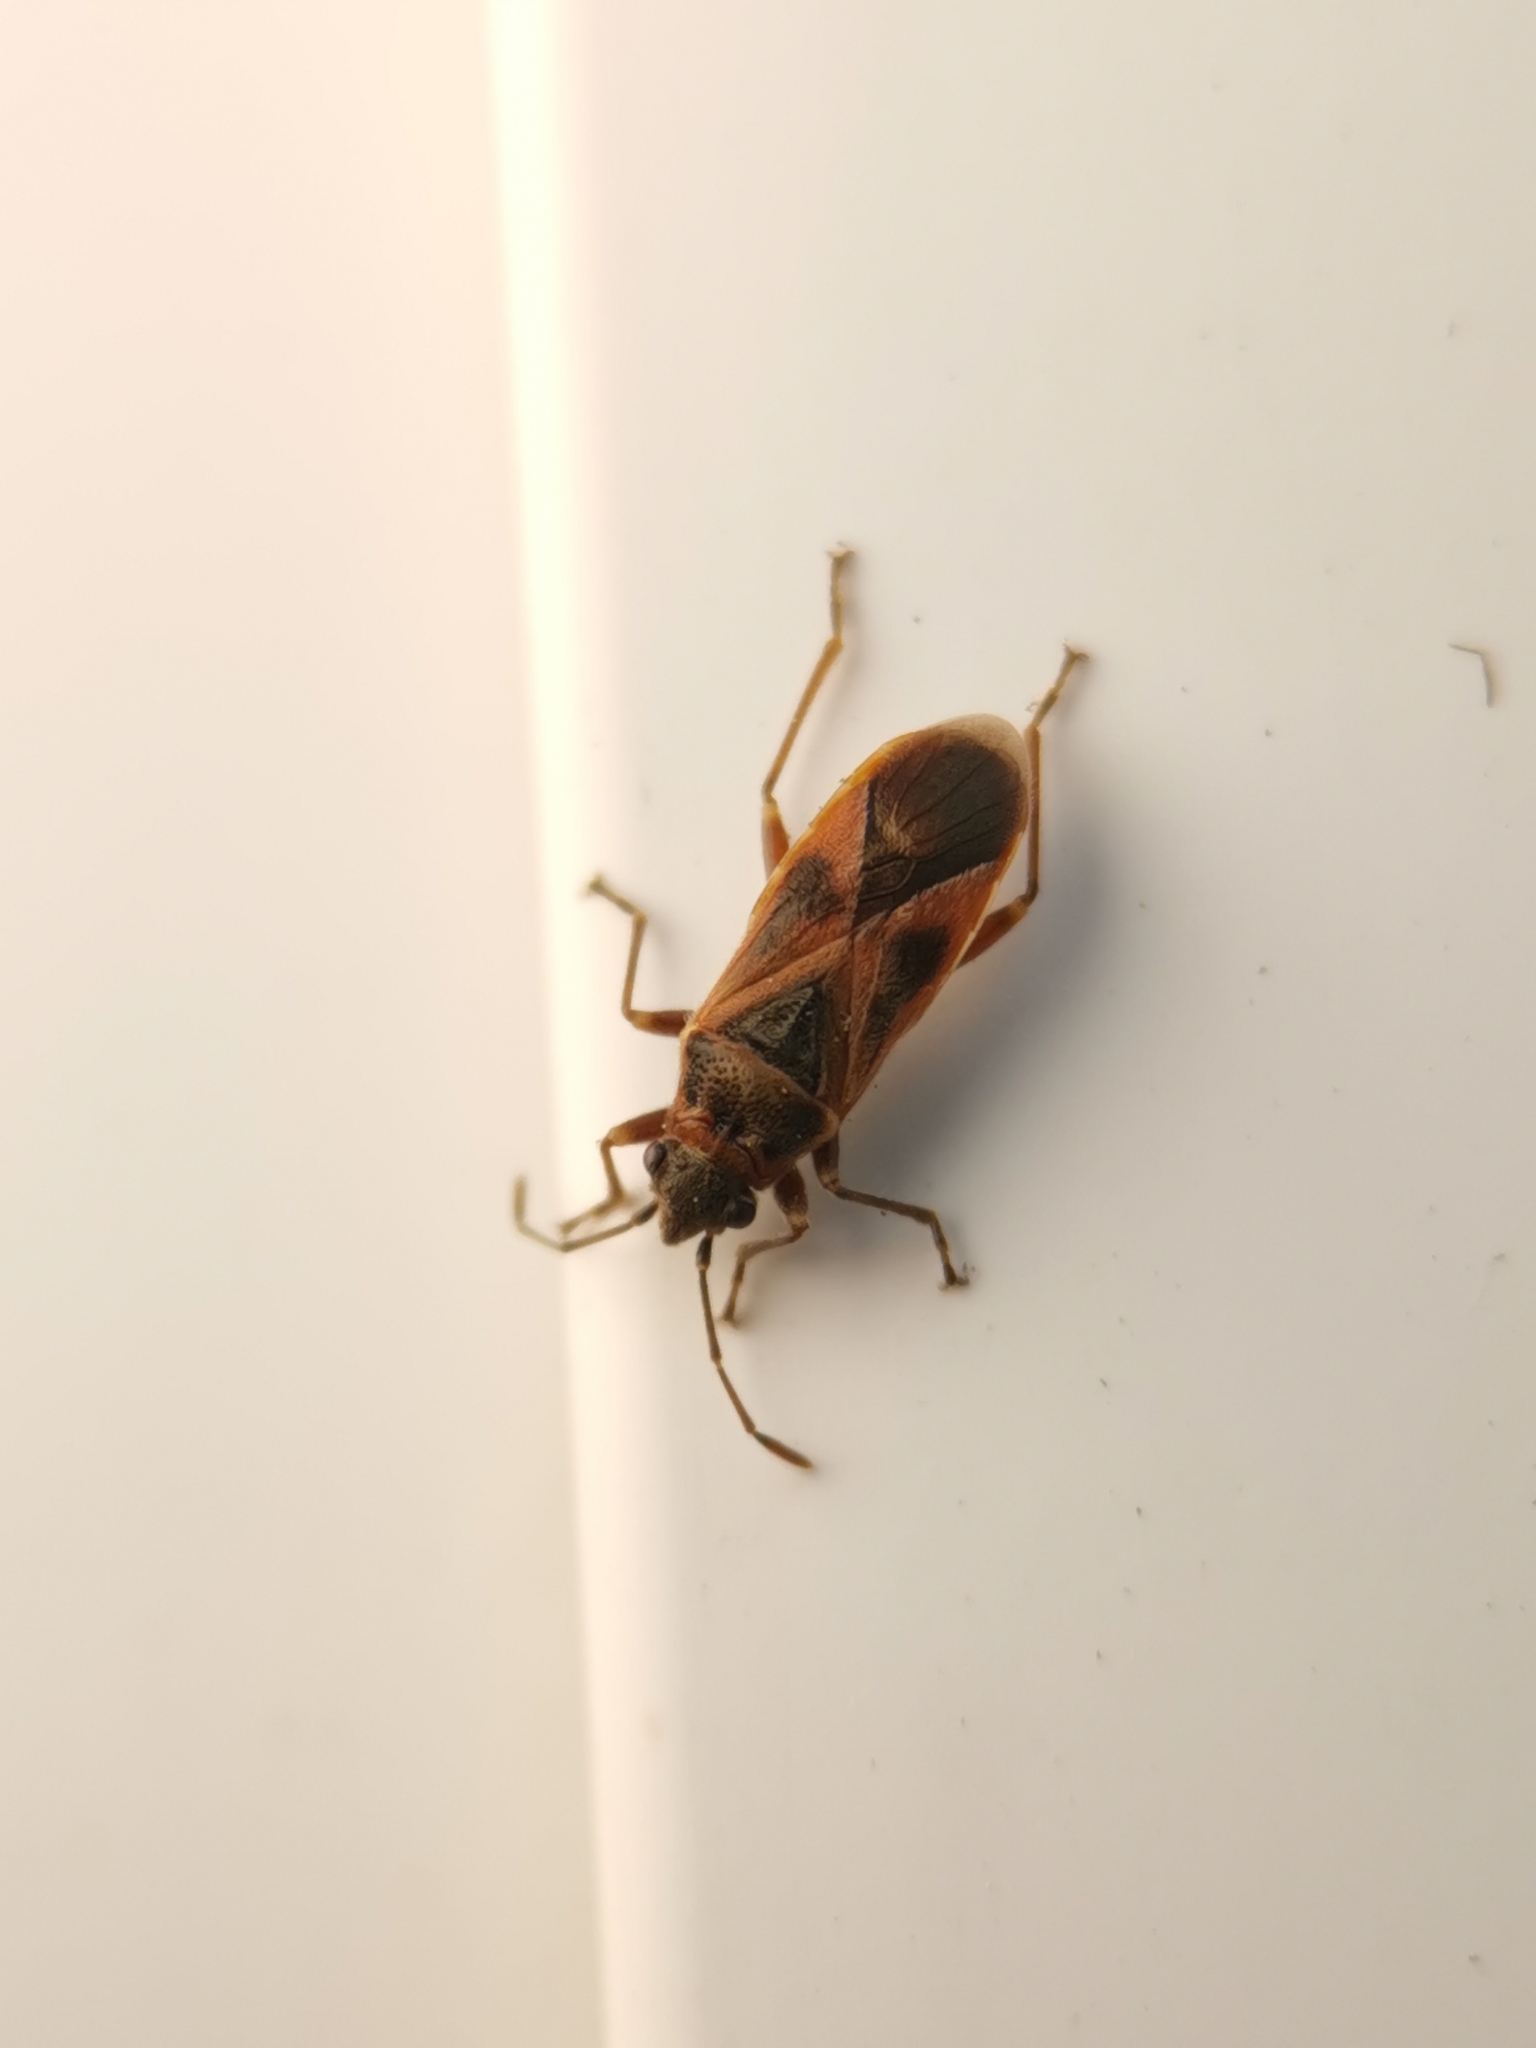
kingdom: Animalia
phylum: Arthropoda
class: Insecta
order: Hemiptera
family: Lygaeidae
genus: Arocatus
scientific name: Arocatus roeselii
